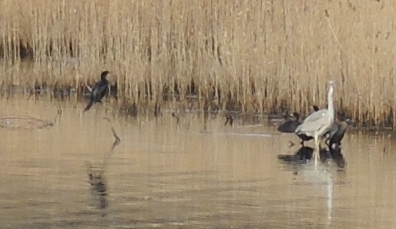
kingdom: Animalia
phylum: Chordata
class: Aves
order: Pelecaniformes
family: Ardeidae
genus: Ardea
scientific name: Ardea cinerea
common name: Grey heron
